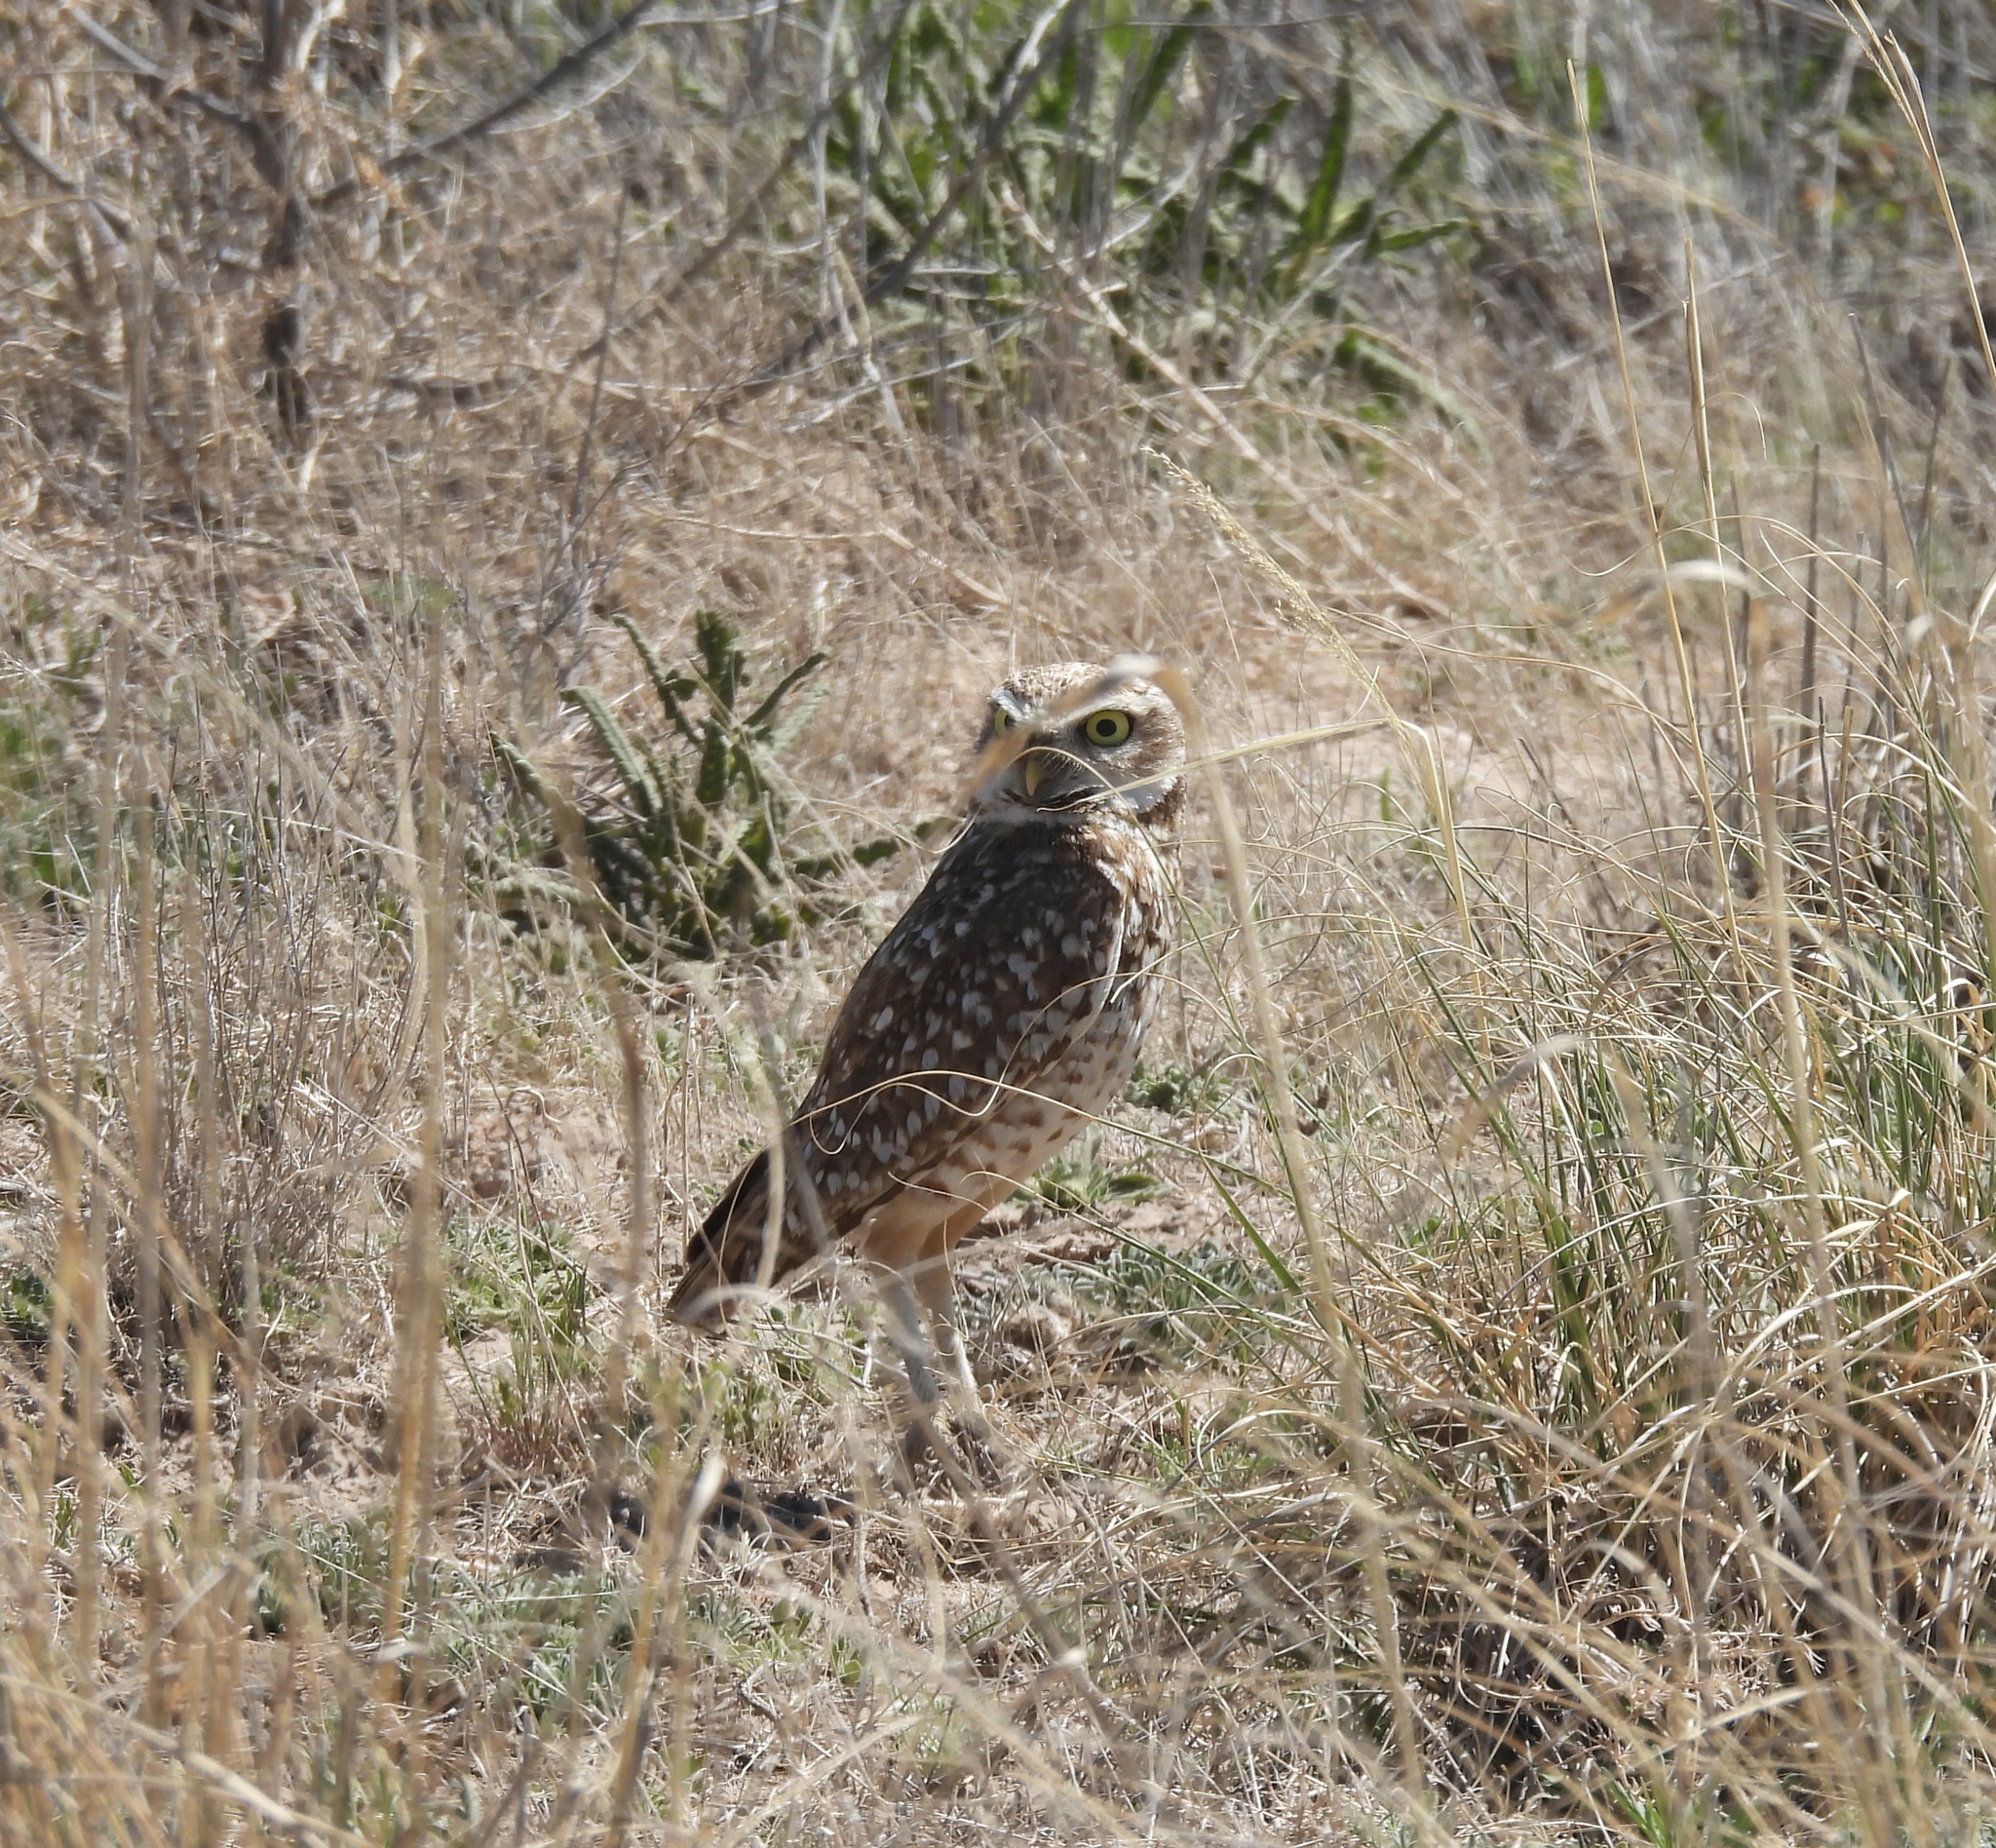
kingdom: Animalia
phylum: Chordata
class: Aves
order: Strigiformes
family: Strigidae
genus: Athene
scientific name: Athene cunicularia
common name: Burrowing owl
